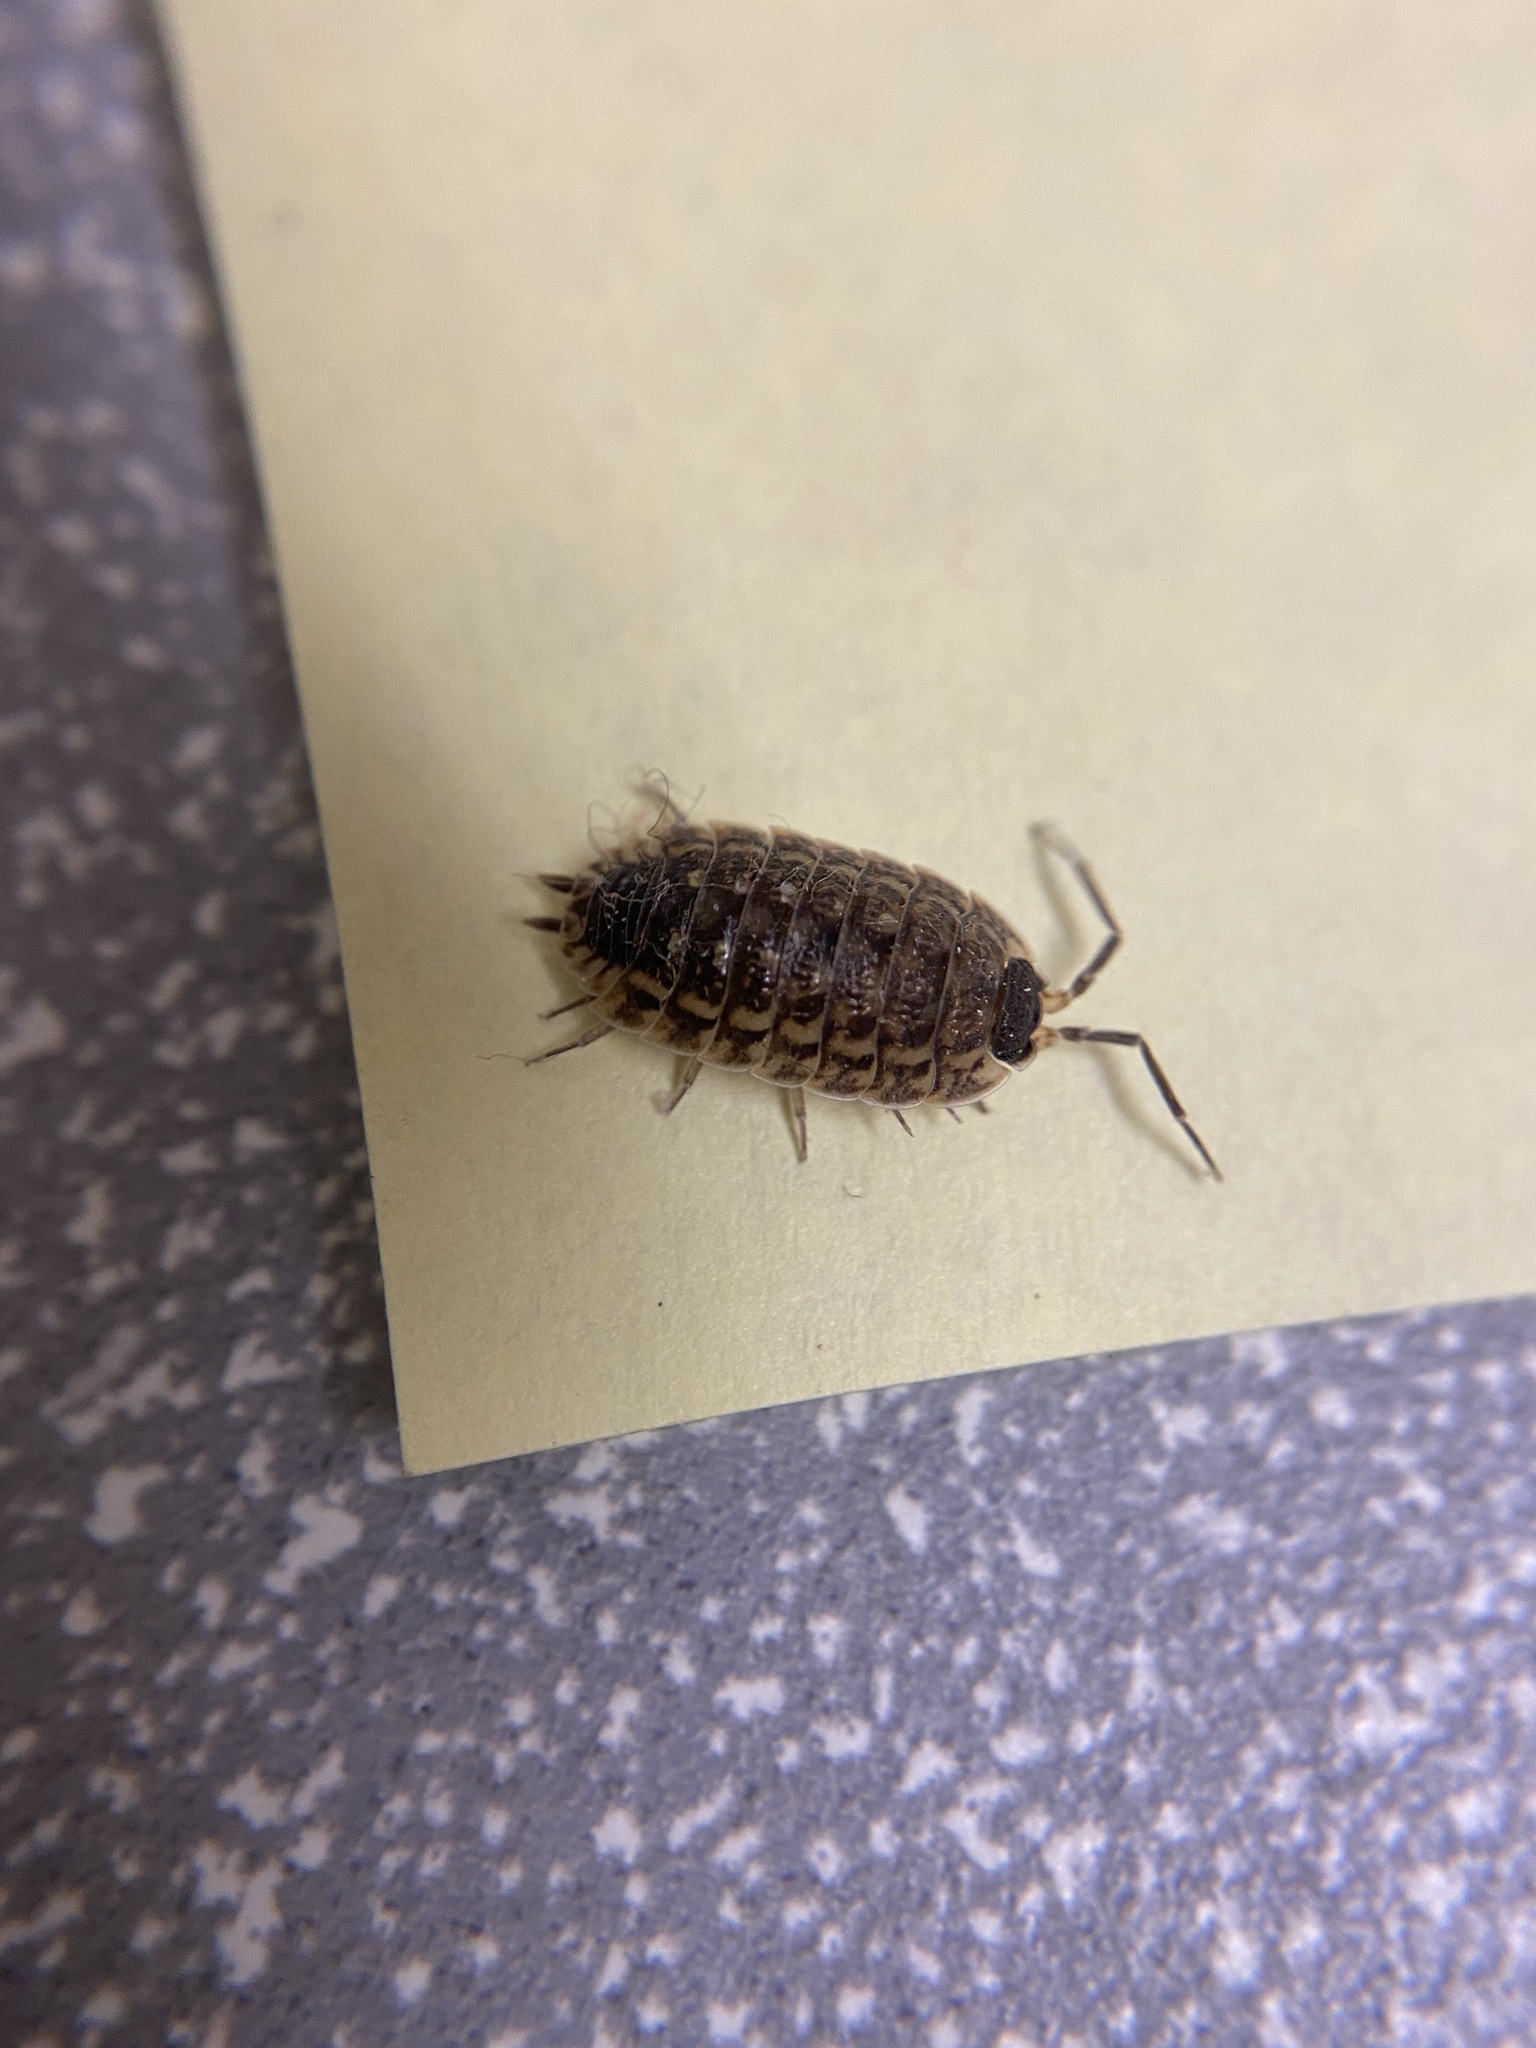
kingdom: Animalia
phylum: Arthropoda
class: Malacostraca
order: Isopoda
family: Porcellionidae
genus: Porcellio
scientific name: Porcellio spinicornis
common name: Painted woodlouse
